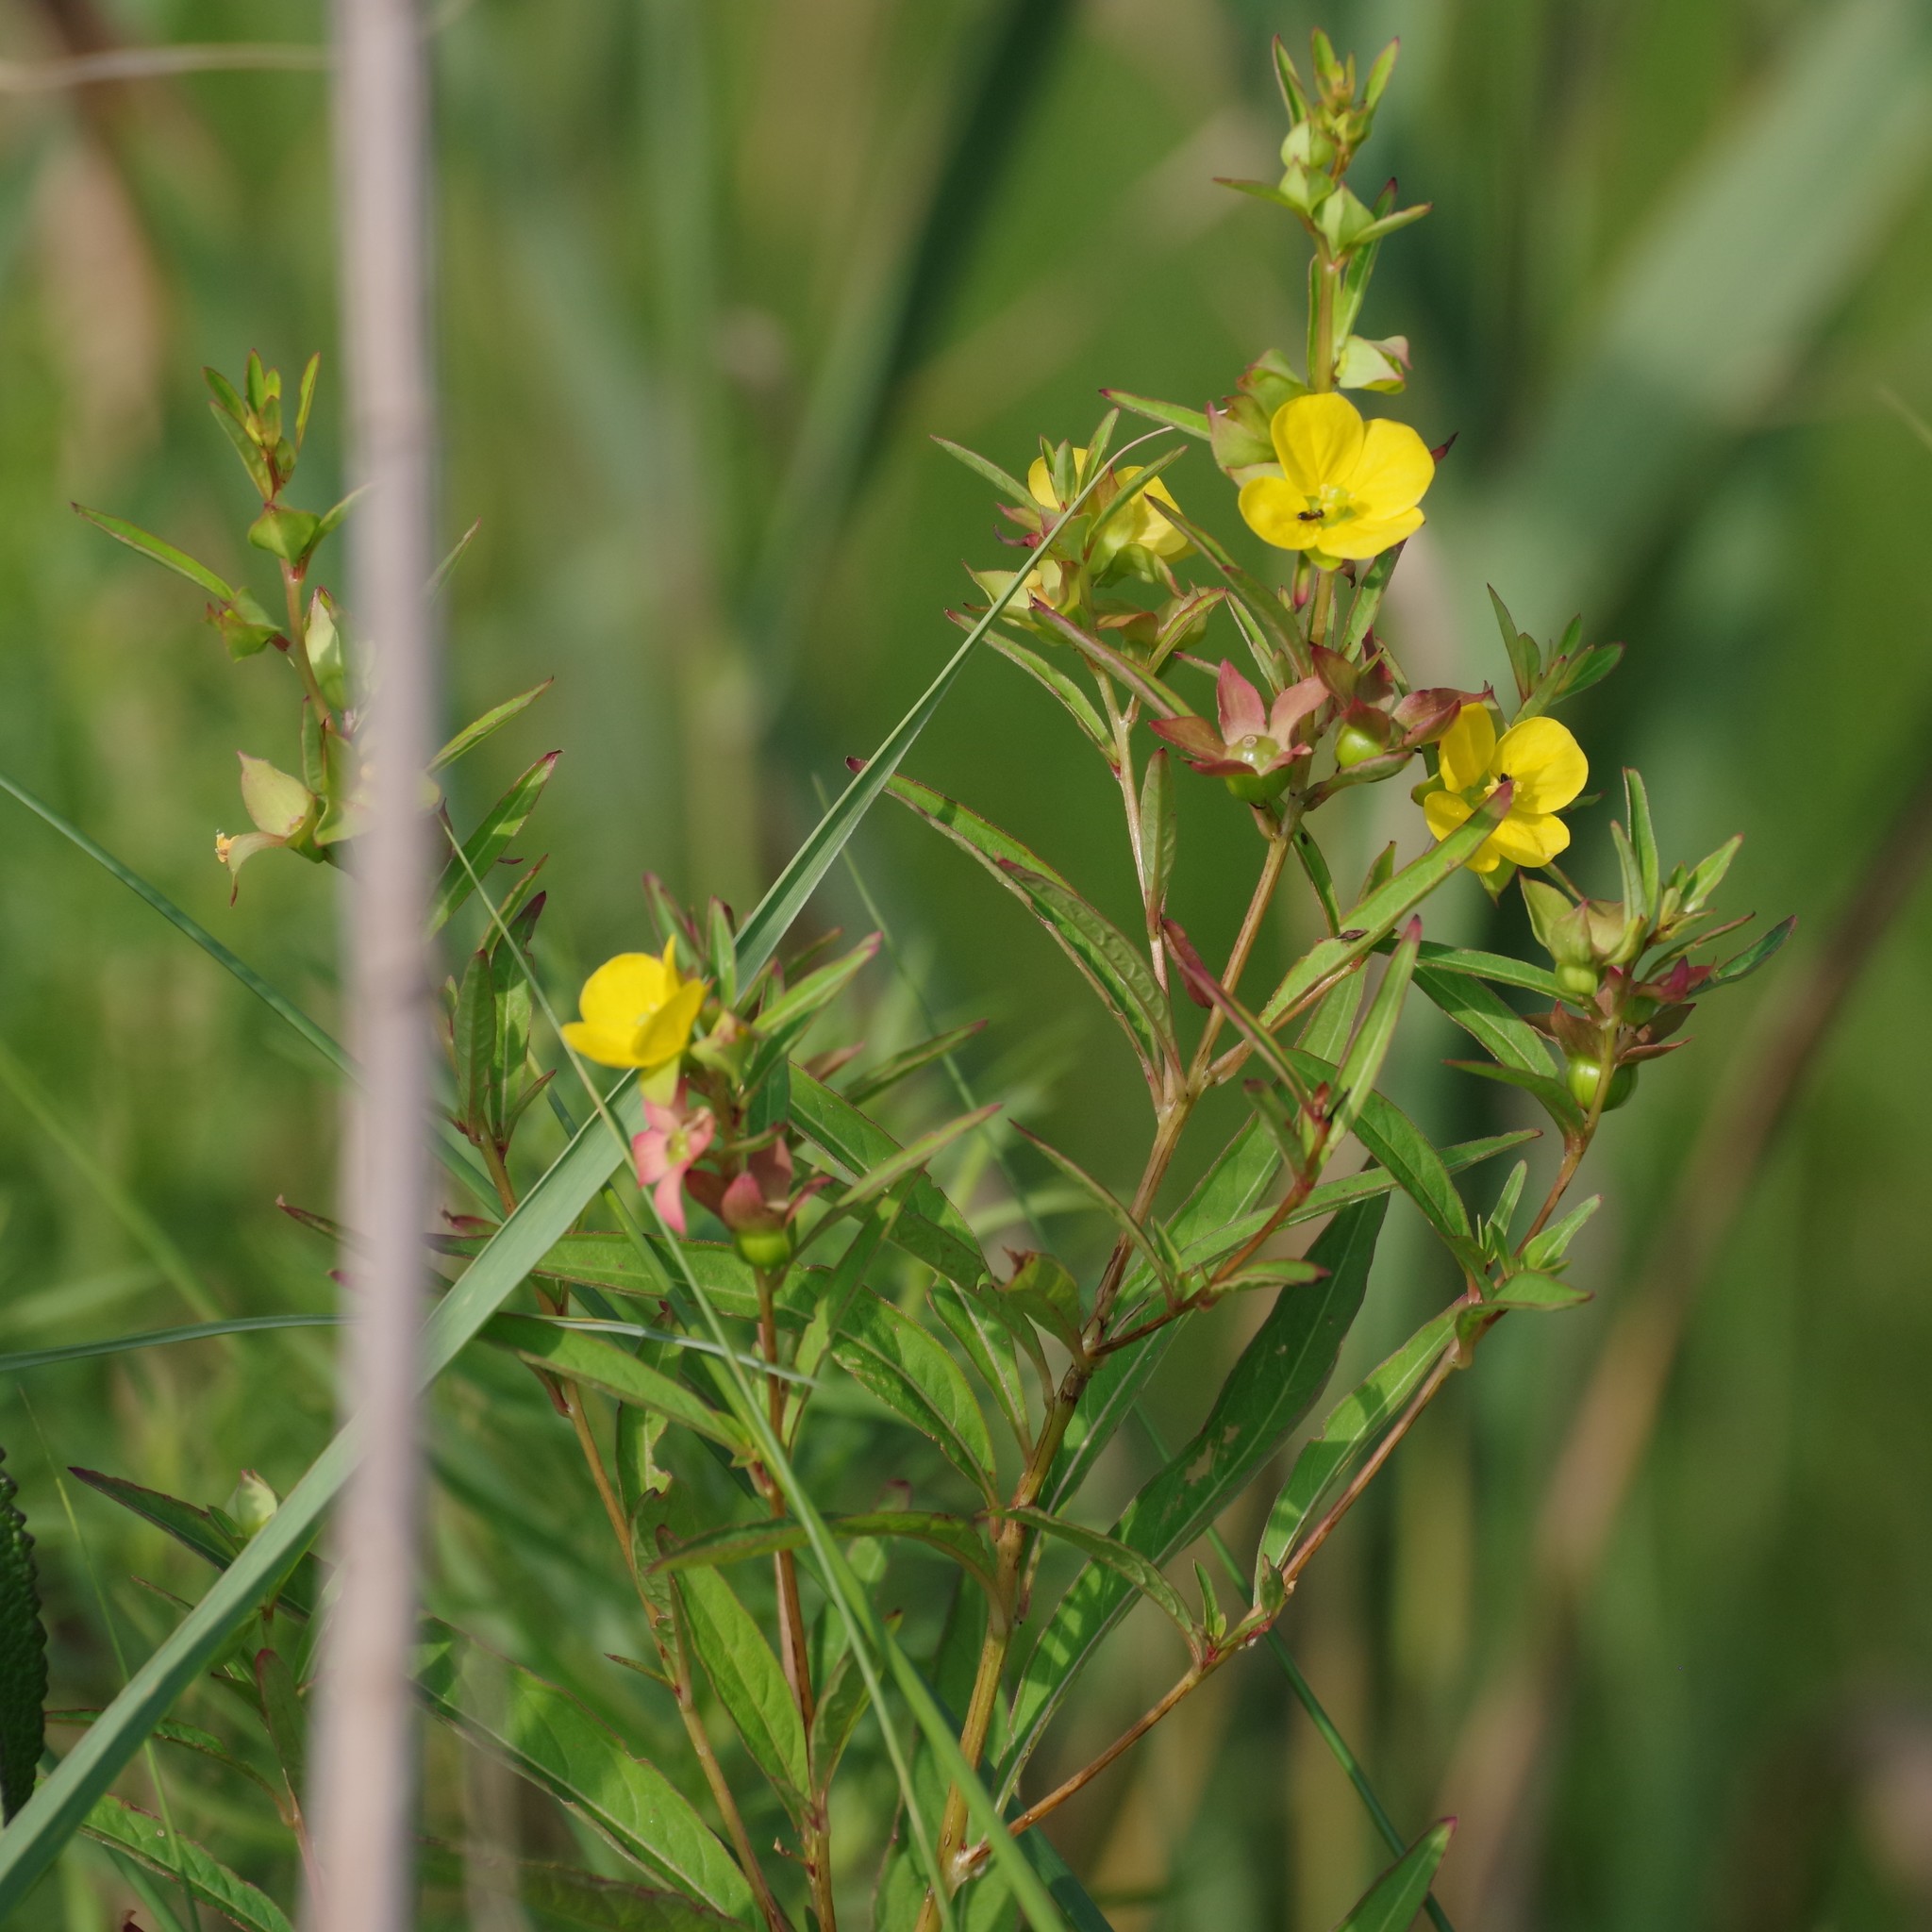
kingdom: Plantae
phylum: Tracheophyta
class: Magnoliopsida
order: Myrtales
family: Onagraceae
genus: Ludwigia
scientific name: Ludwigia alternifolia
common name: Rattlebox
